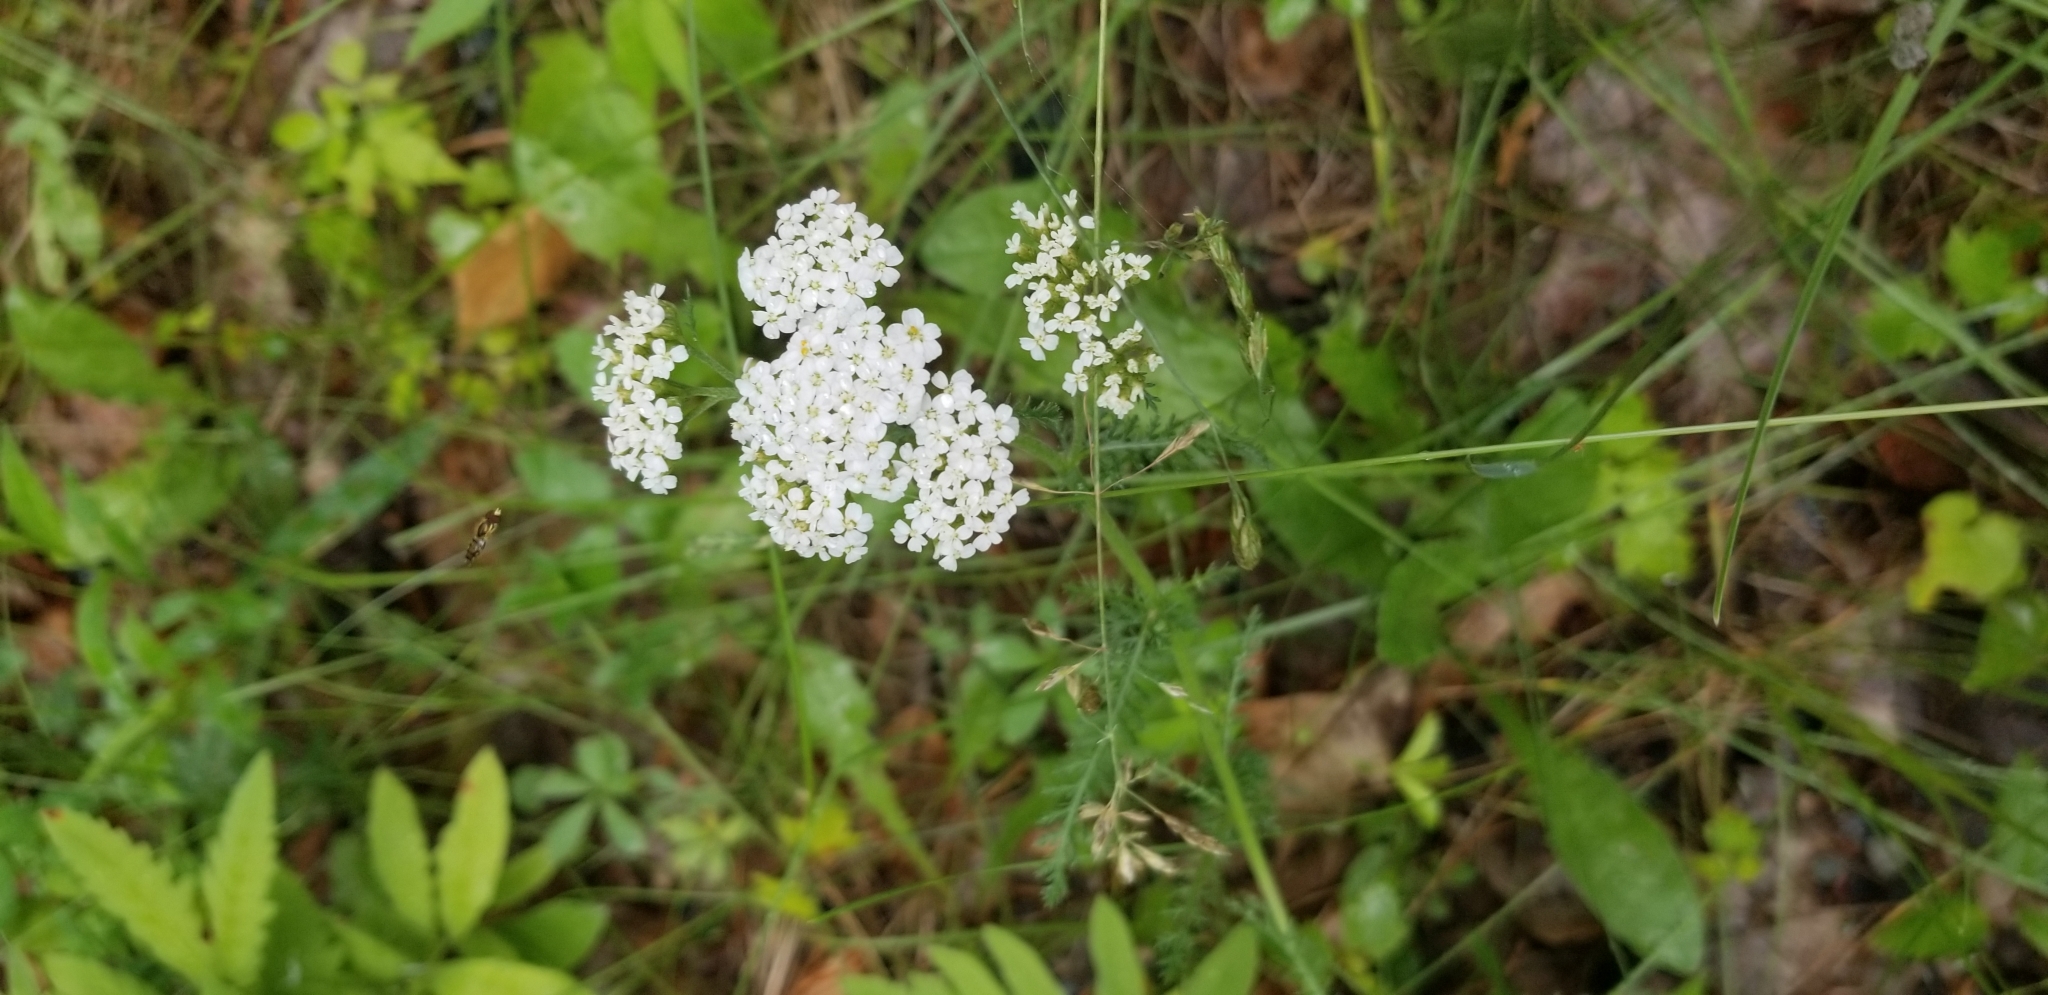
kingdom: Plantae
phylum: Tracheophyta
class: Magnoliopsida
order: Asterales
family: Asteraceae
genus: Achillea
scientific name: Achillea millefolium
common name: Yarrow
